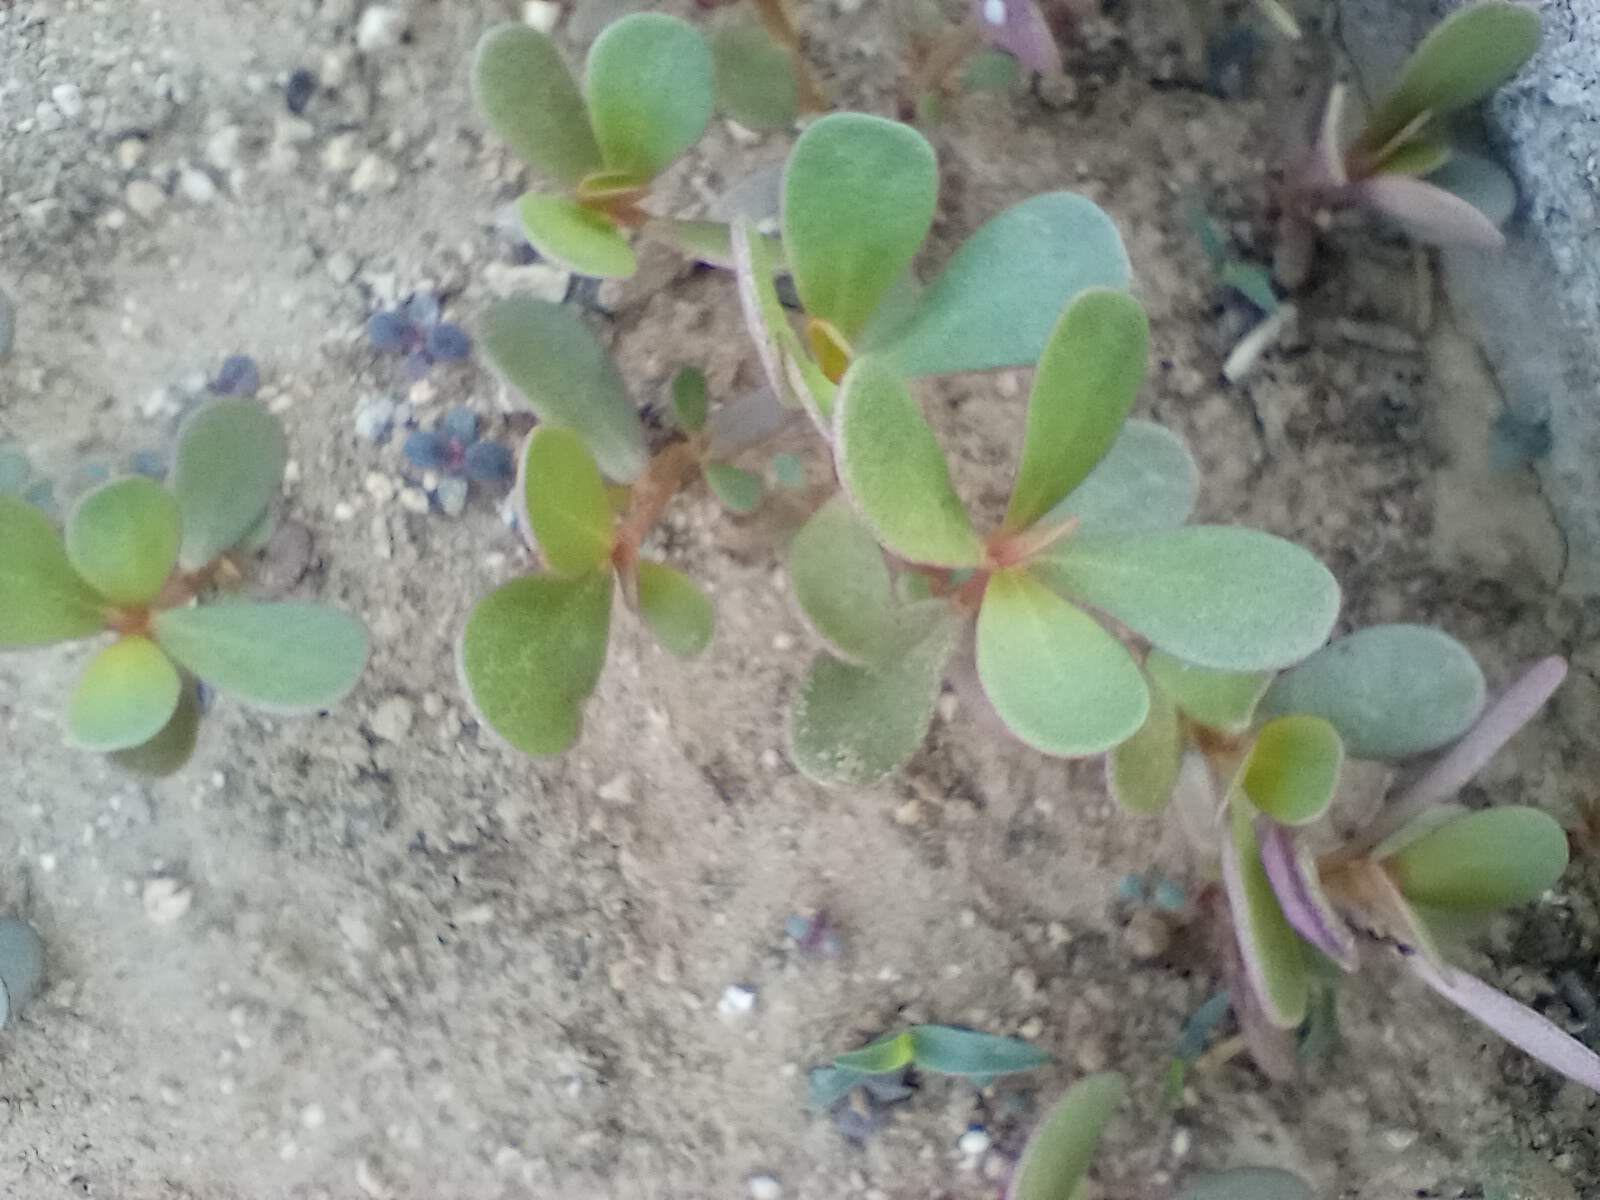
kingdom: Plantae
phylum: Tracheophyta
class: Magnoliopsida
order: Caryophyllales
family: Portulacaceae
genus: Portulaca
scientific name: Portulaca oleracea
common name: Common purslane
